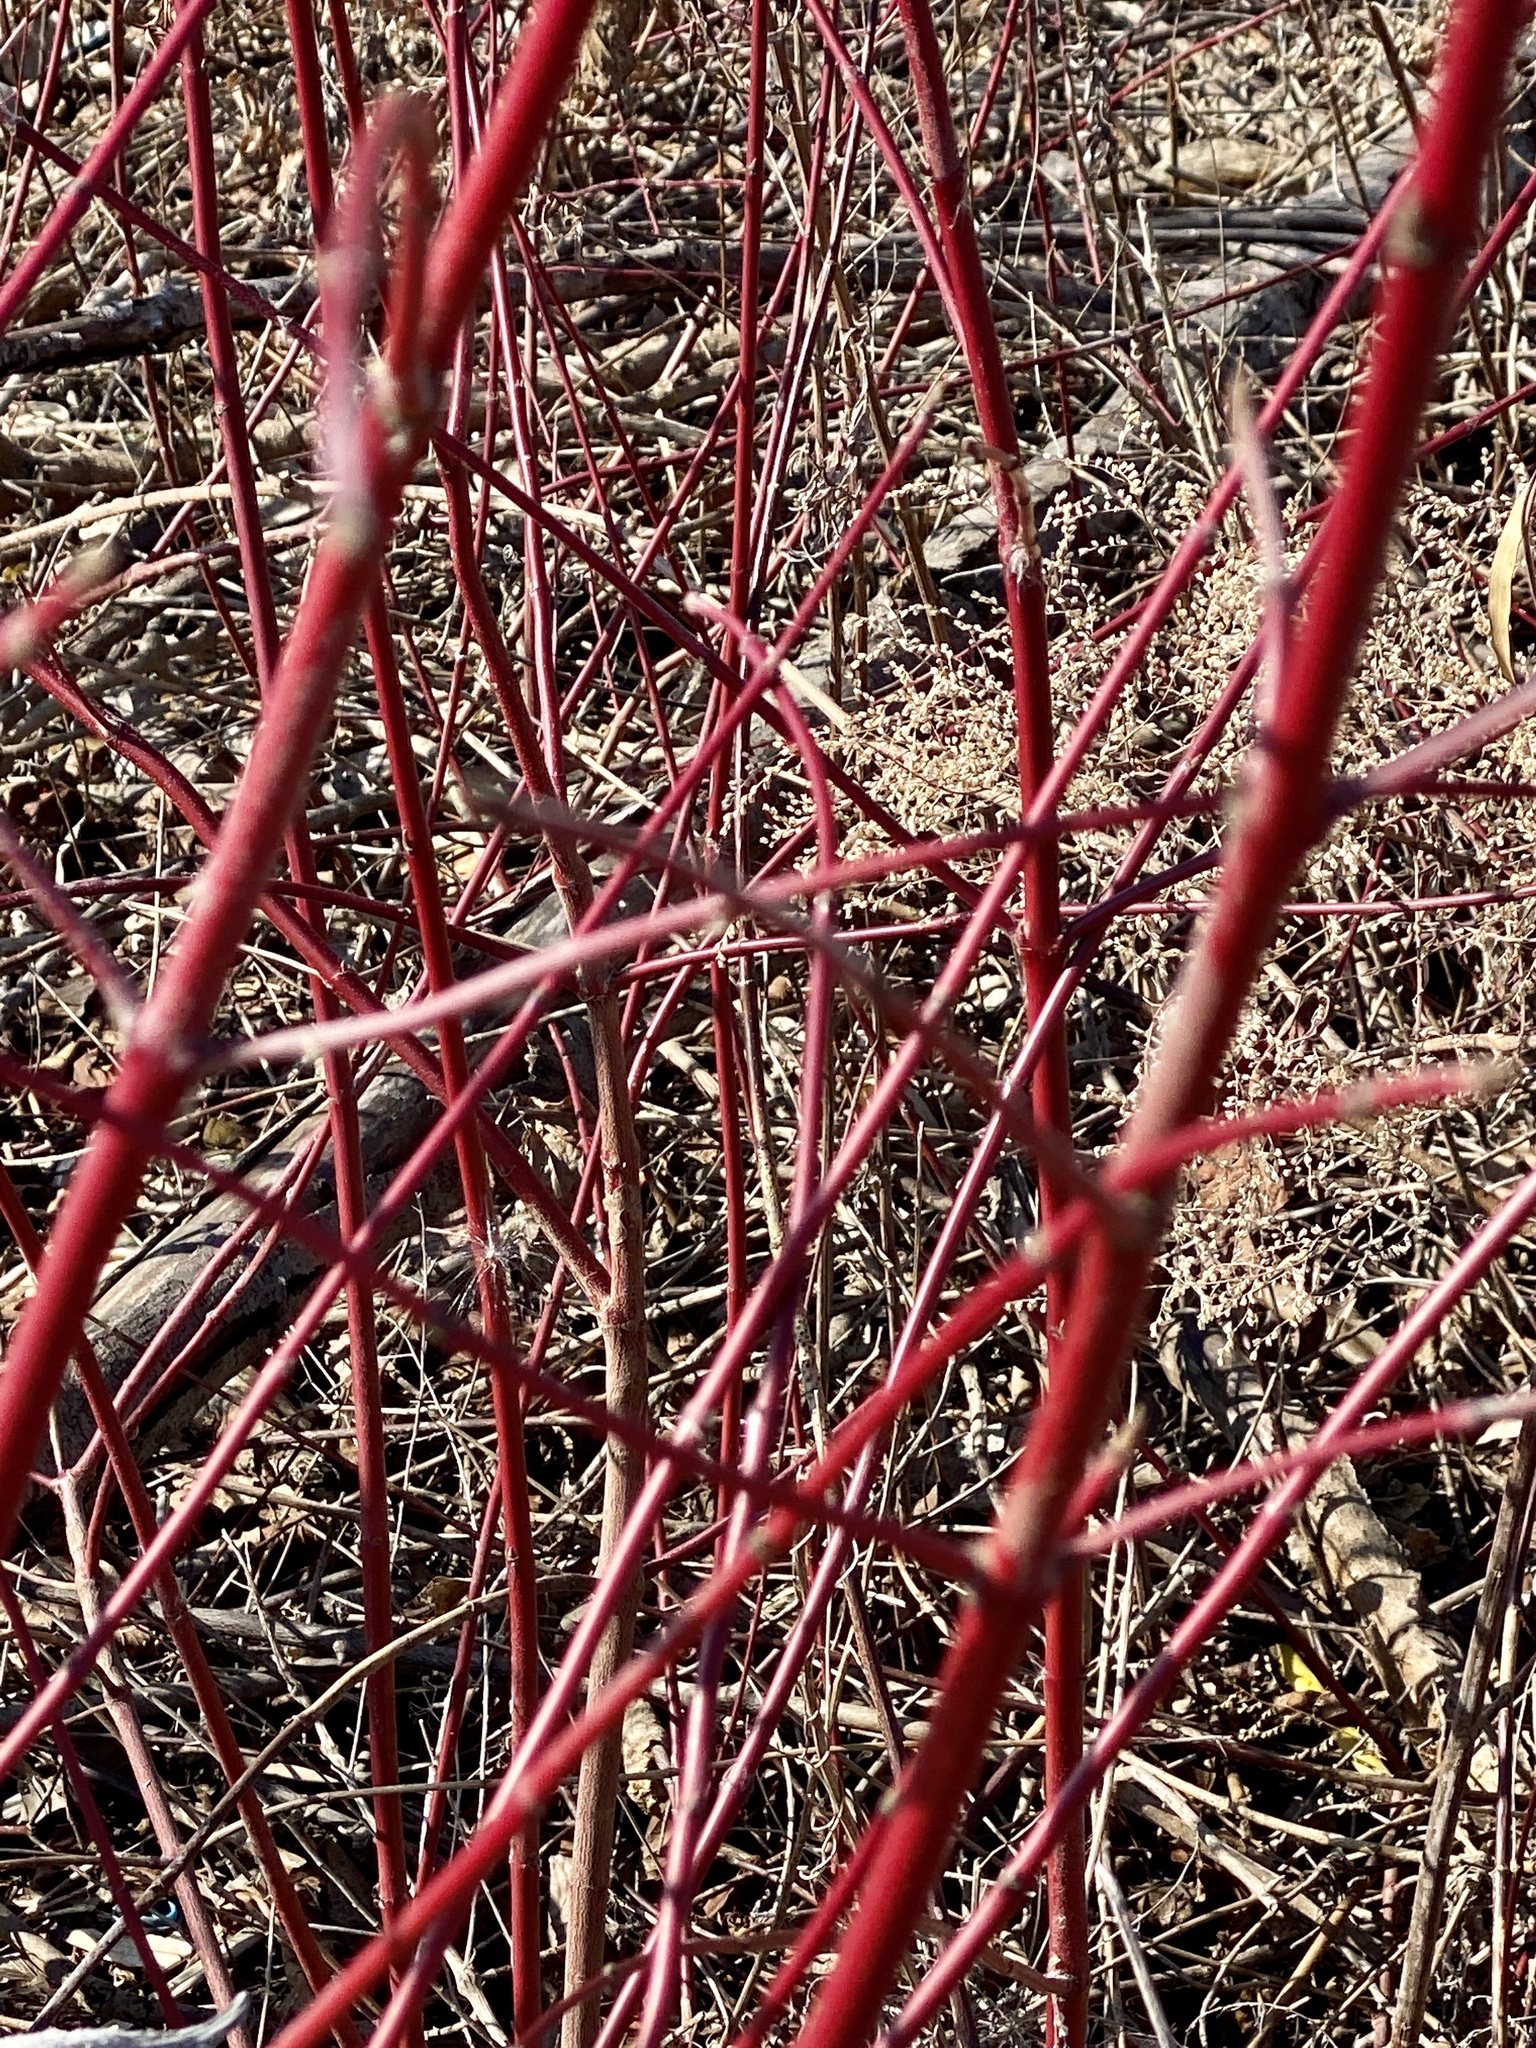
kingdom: Plantae
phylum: Tracheophyta
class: Magnoliopsida
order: Cornales
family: Cornaceae
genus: Cornus
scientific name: Cornus amomum
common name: Silky dogwood
